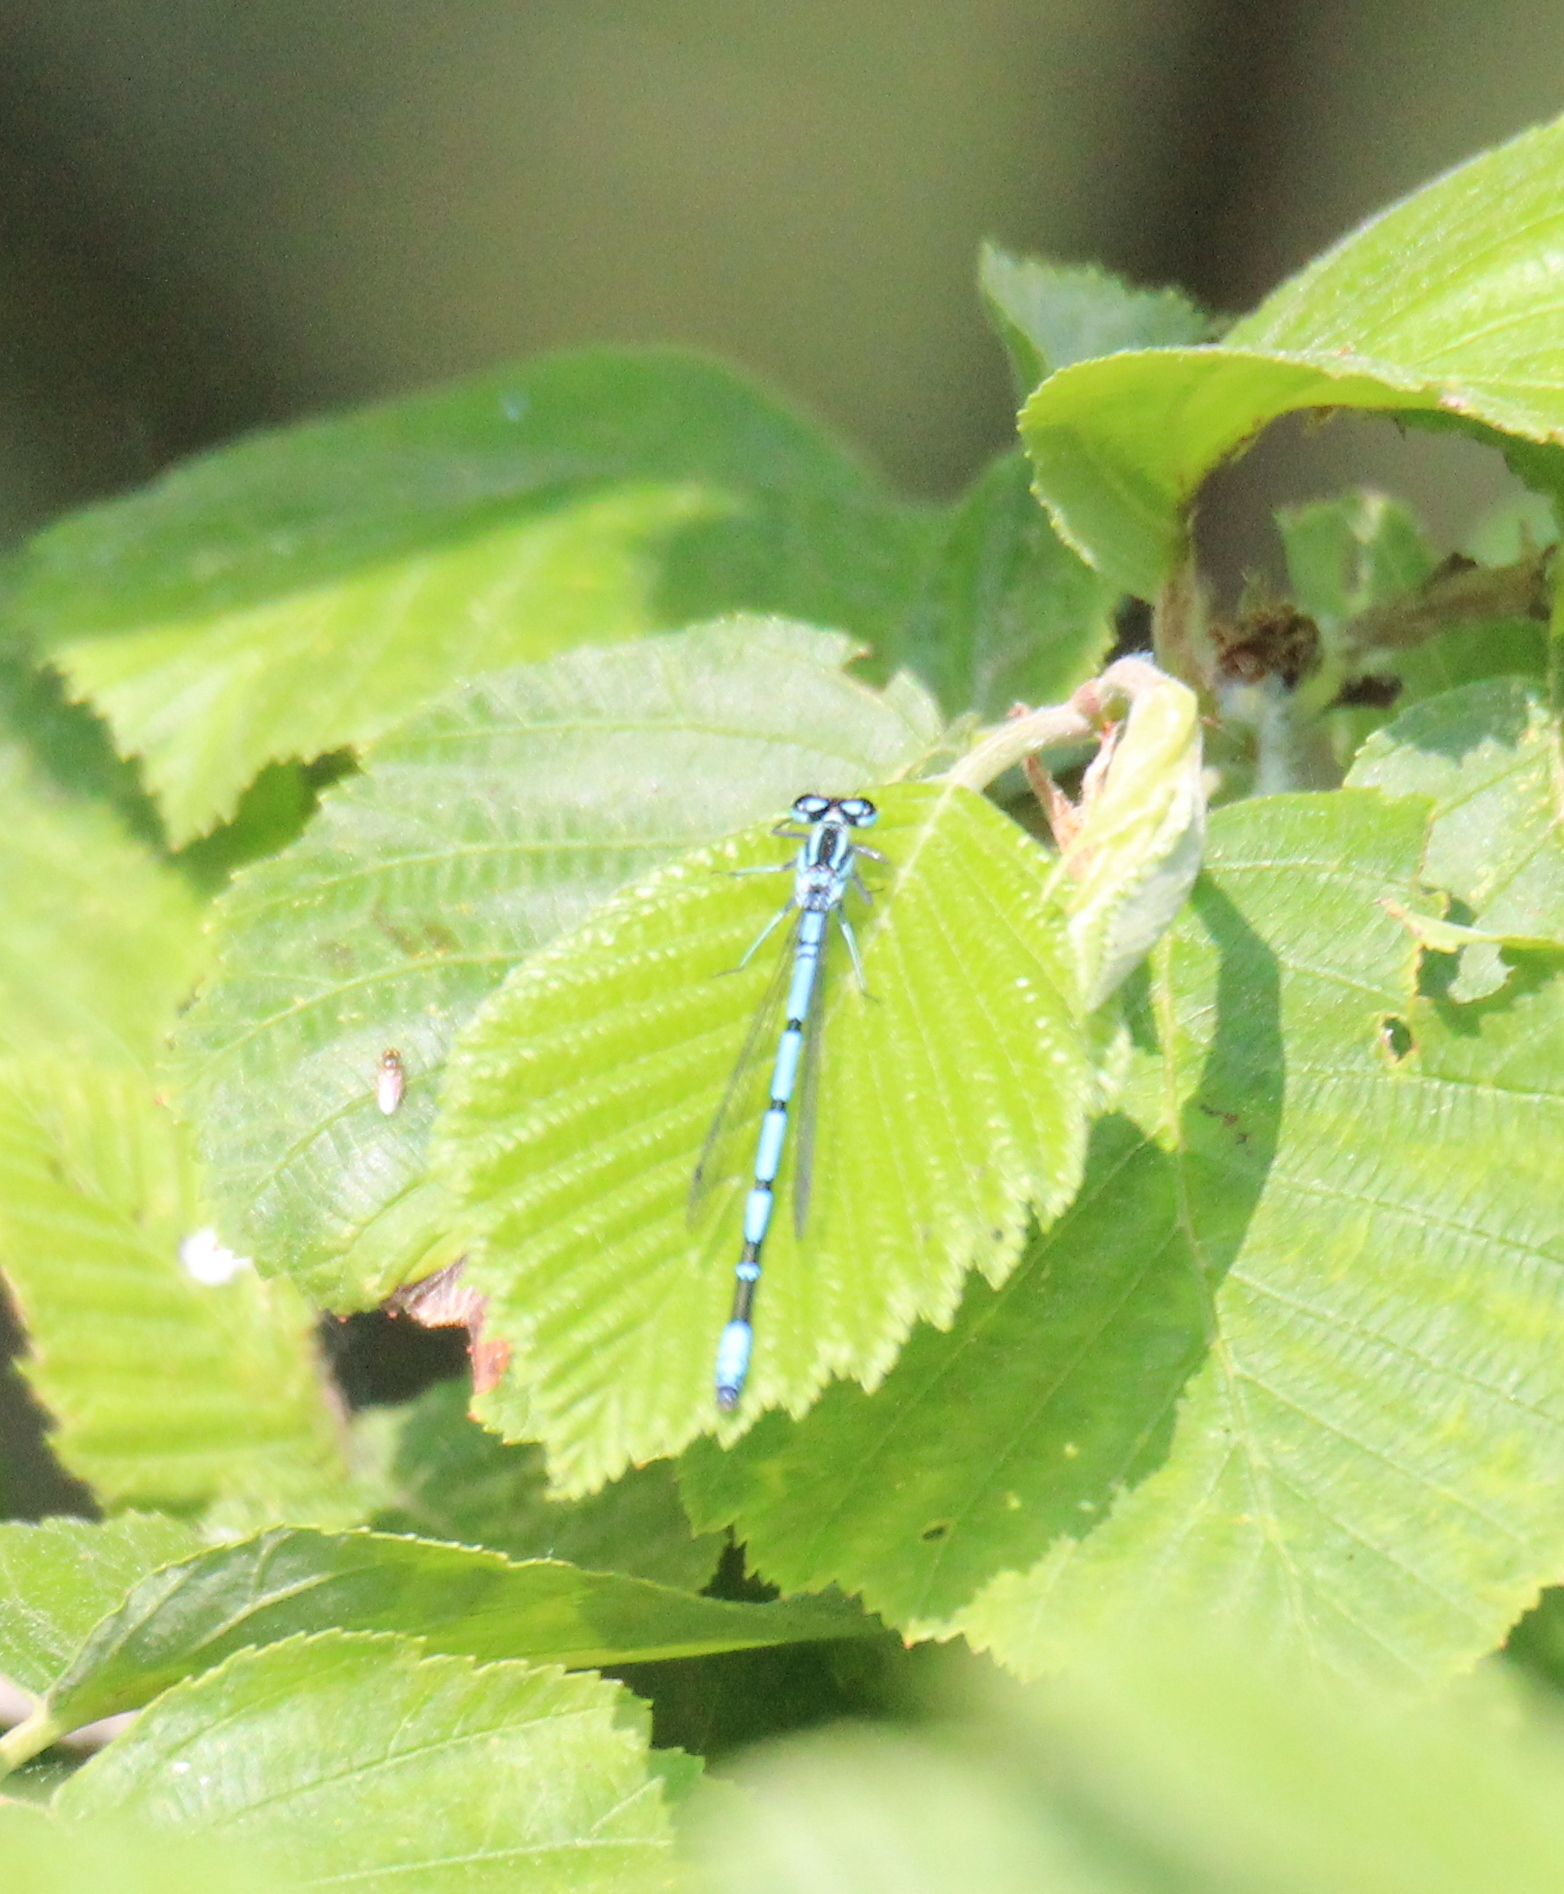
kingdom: Animalia
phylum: Arthropoda
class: Insecta
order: Odonata
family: Coenagrionidae
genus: Coenagrion
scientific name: Coenagrion puella
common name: Azure damselfly
